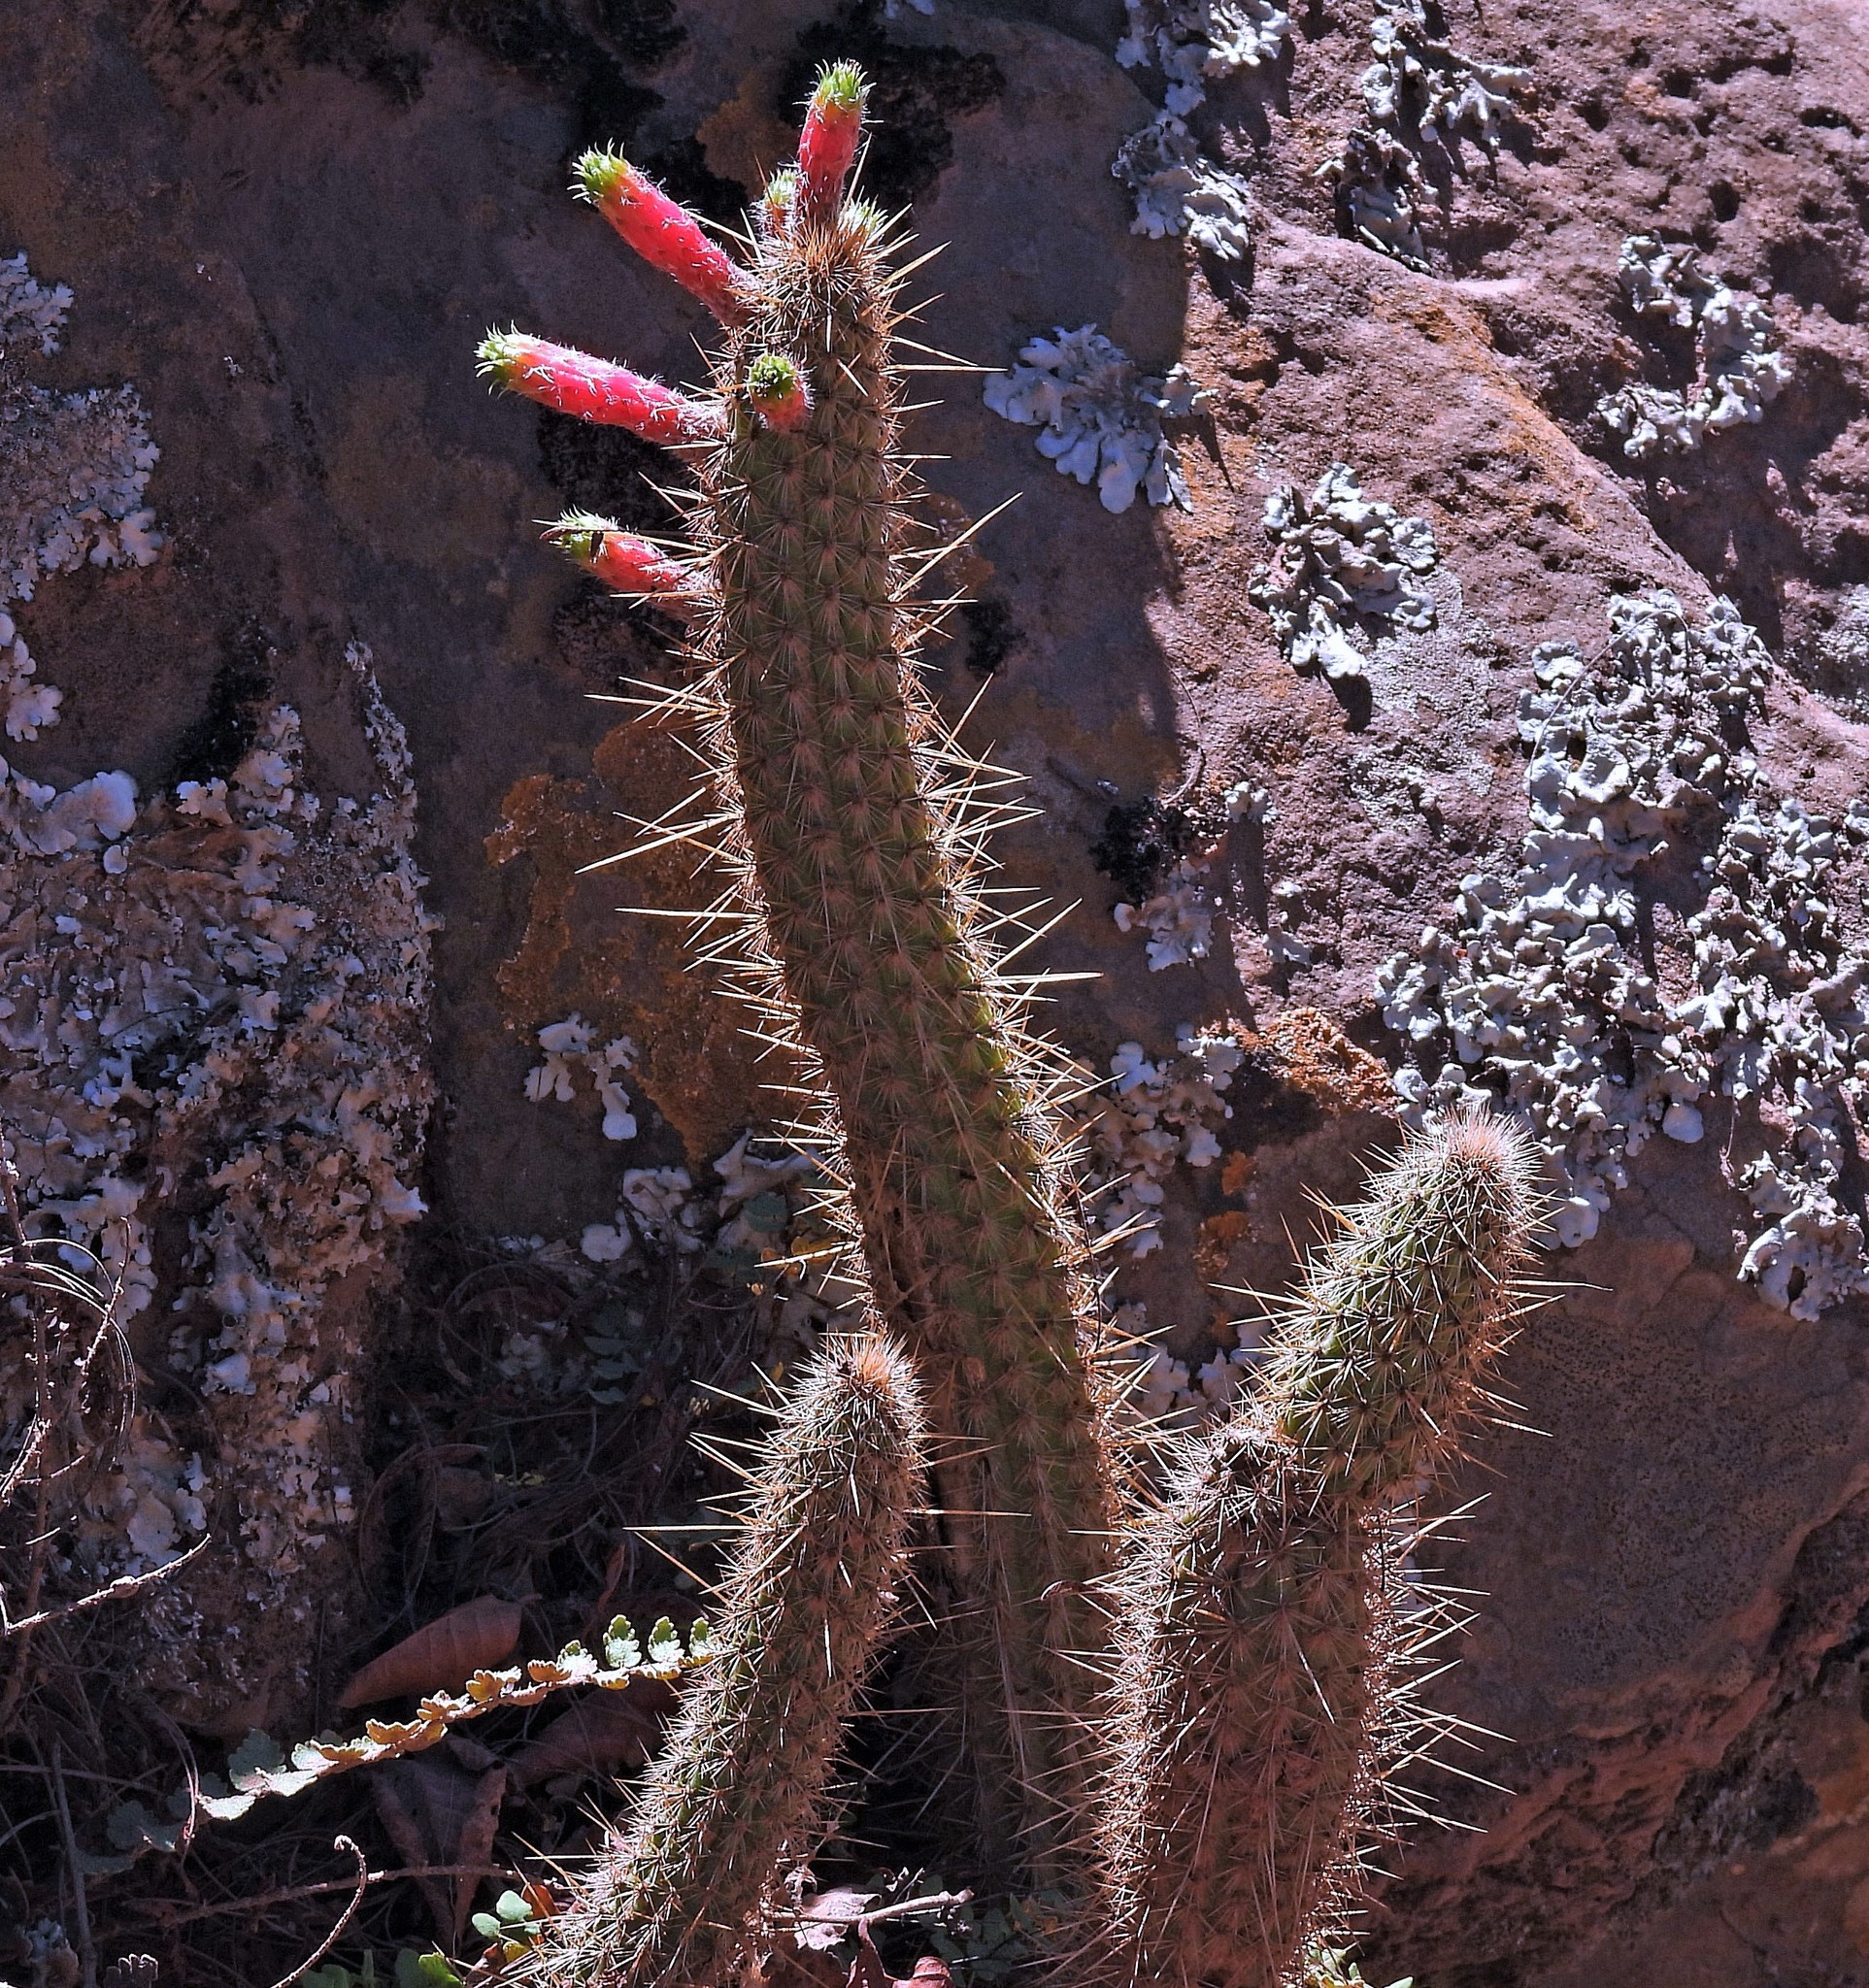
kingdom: Plantae
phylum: Tracheophyta
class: Magnoliopsida
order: Caryophyllales
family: Cactaceae
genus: Cleistocactus
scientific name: Cleistocactus smaragdiflorus
